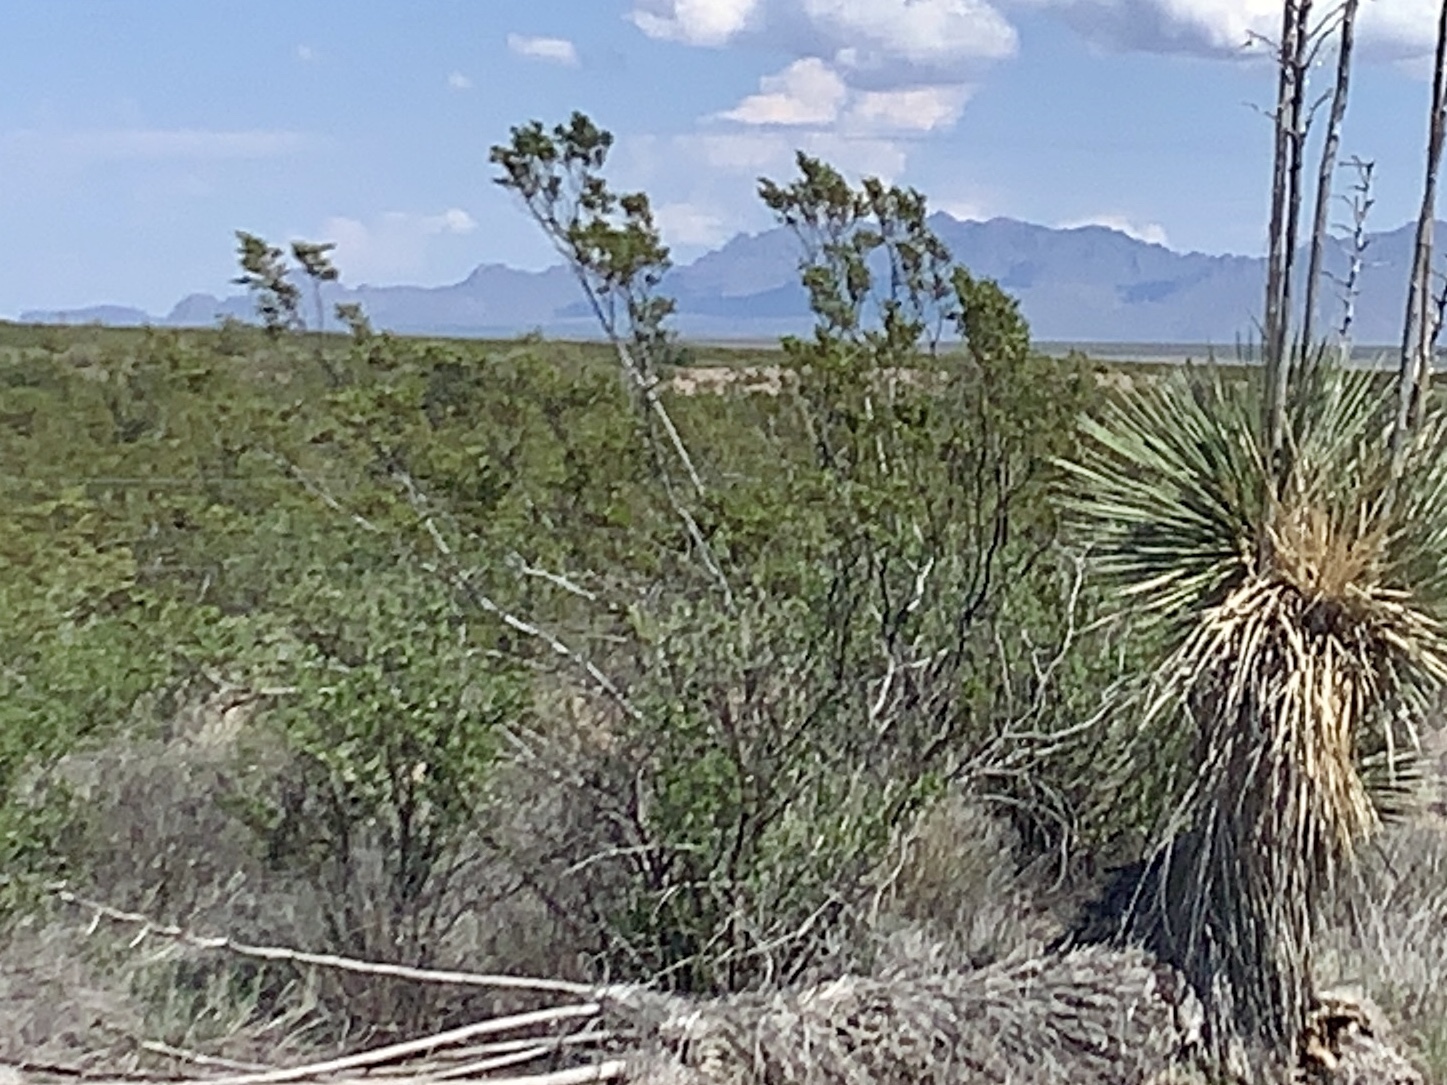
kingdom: Plantae
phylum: Tracheophyta
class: Magnoliopsida
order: Zygophyllales
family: Zygophyllaceae
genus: Larrea
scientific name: Larrea tridentata
